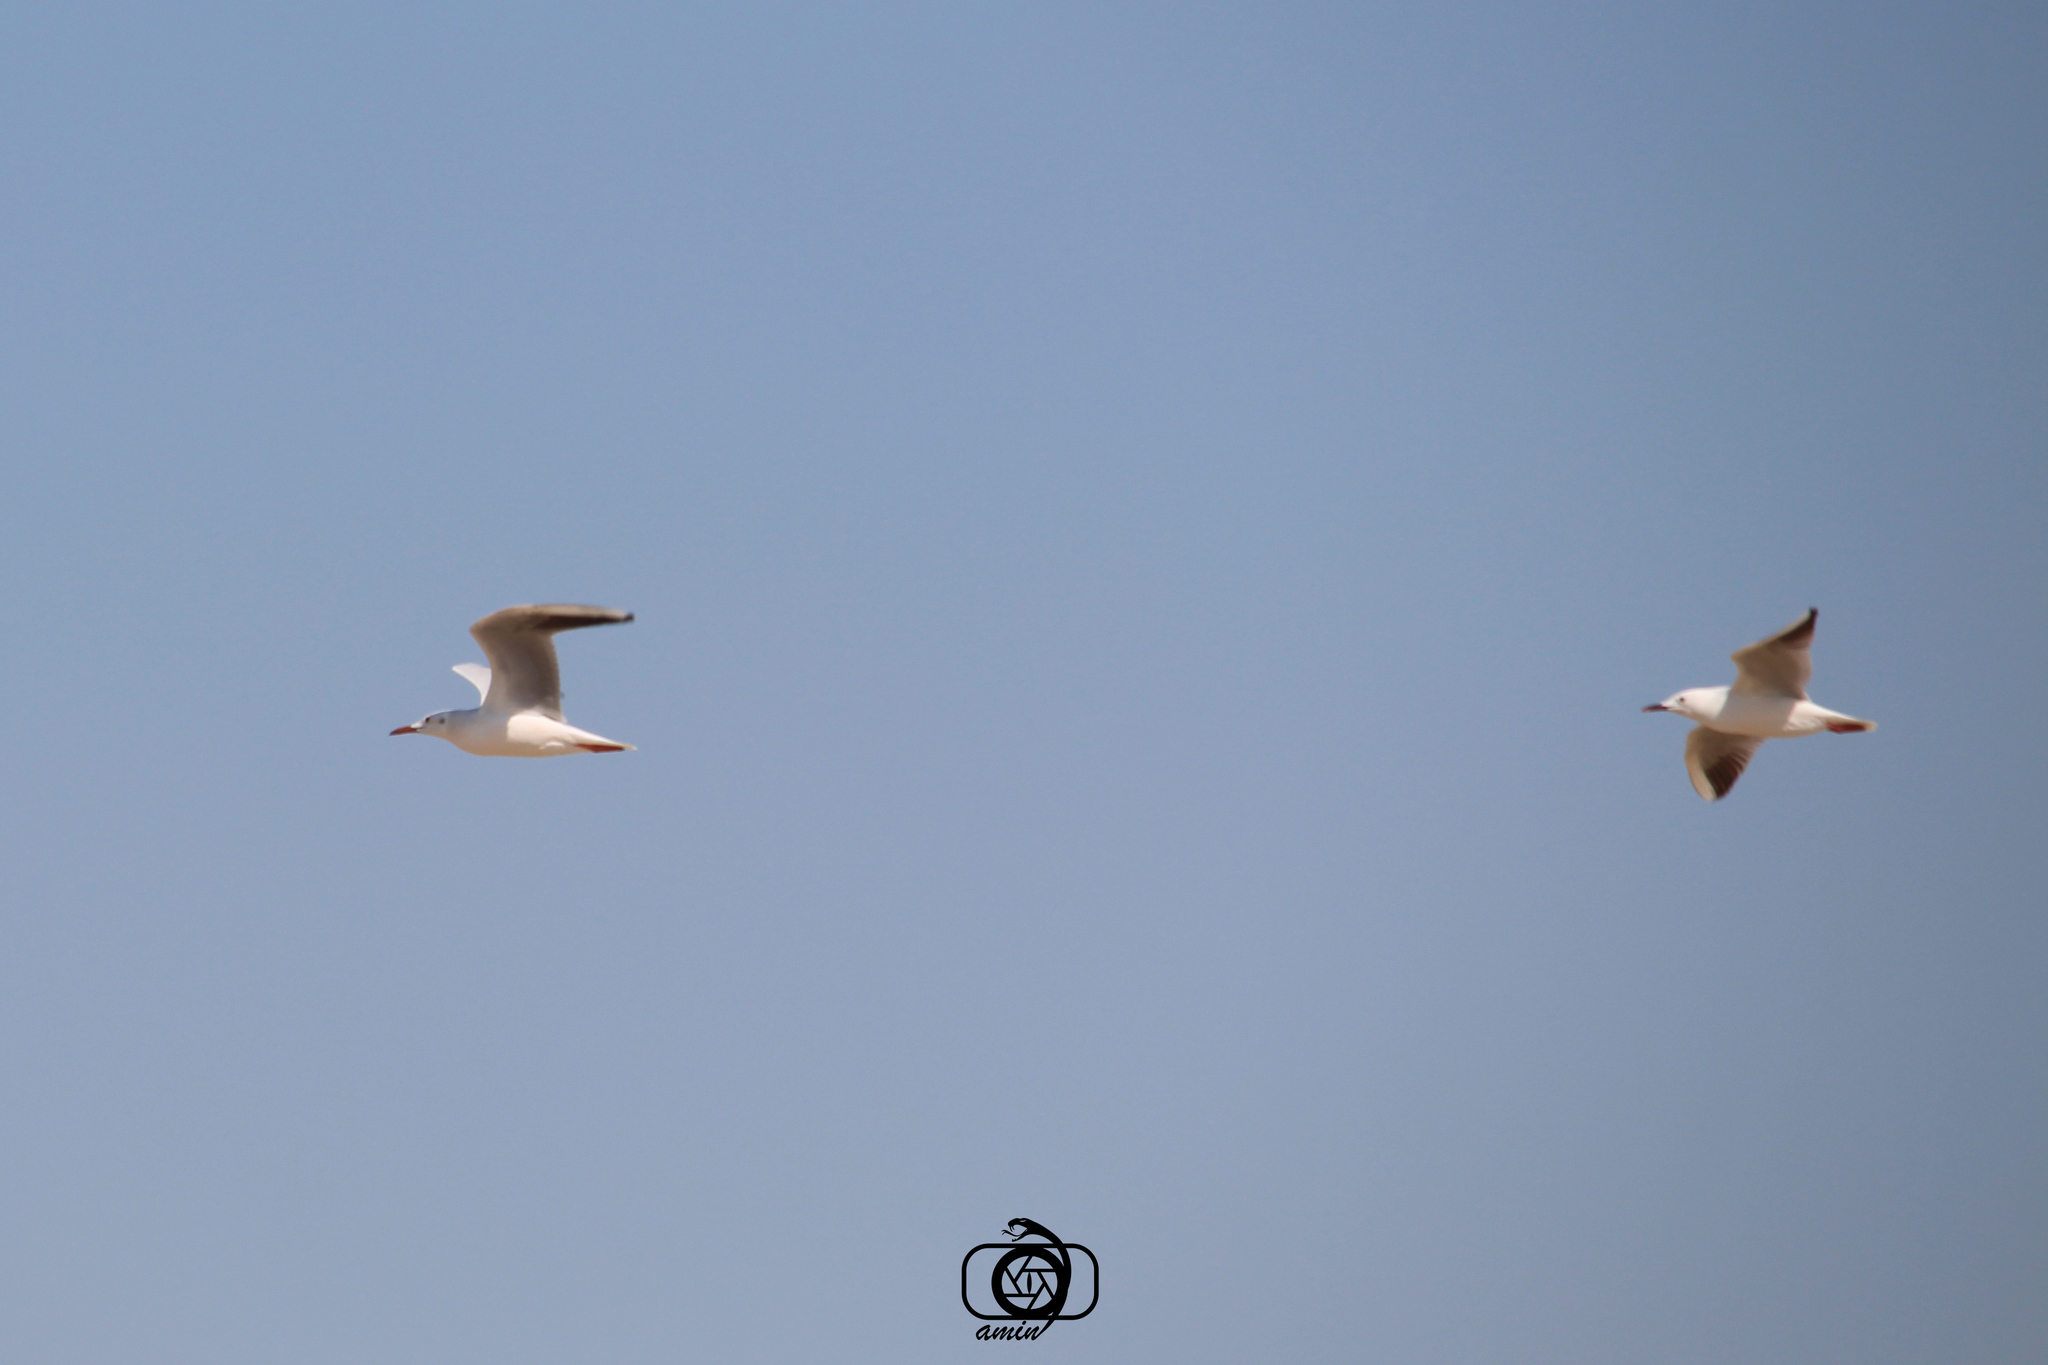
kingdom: Animalia
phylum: Chordata
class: Aves
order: Charadriiformes
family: Laridae
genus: Chroicocephalus
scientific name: Chroicocephalus genei
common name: Slender-billed gull
